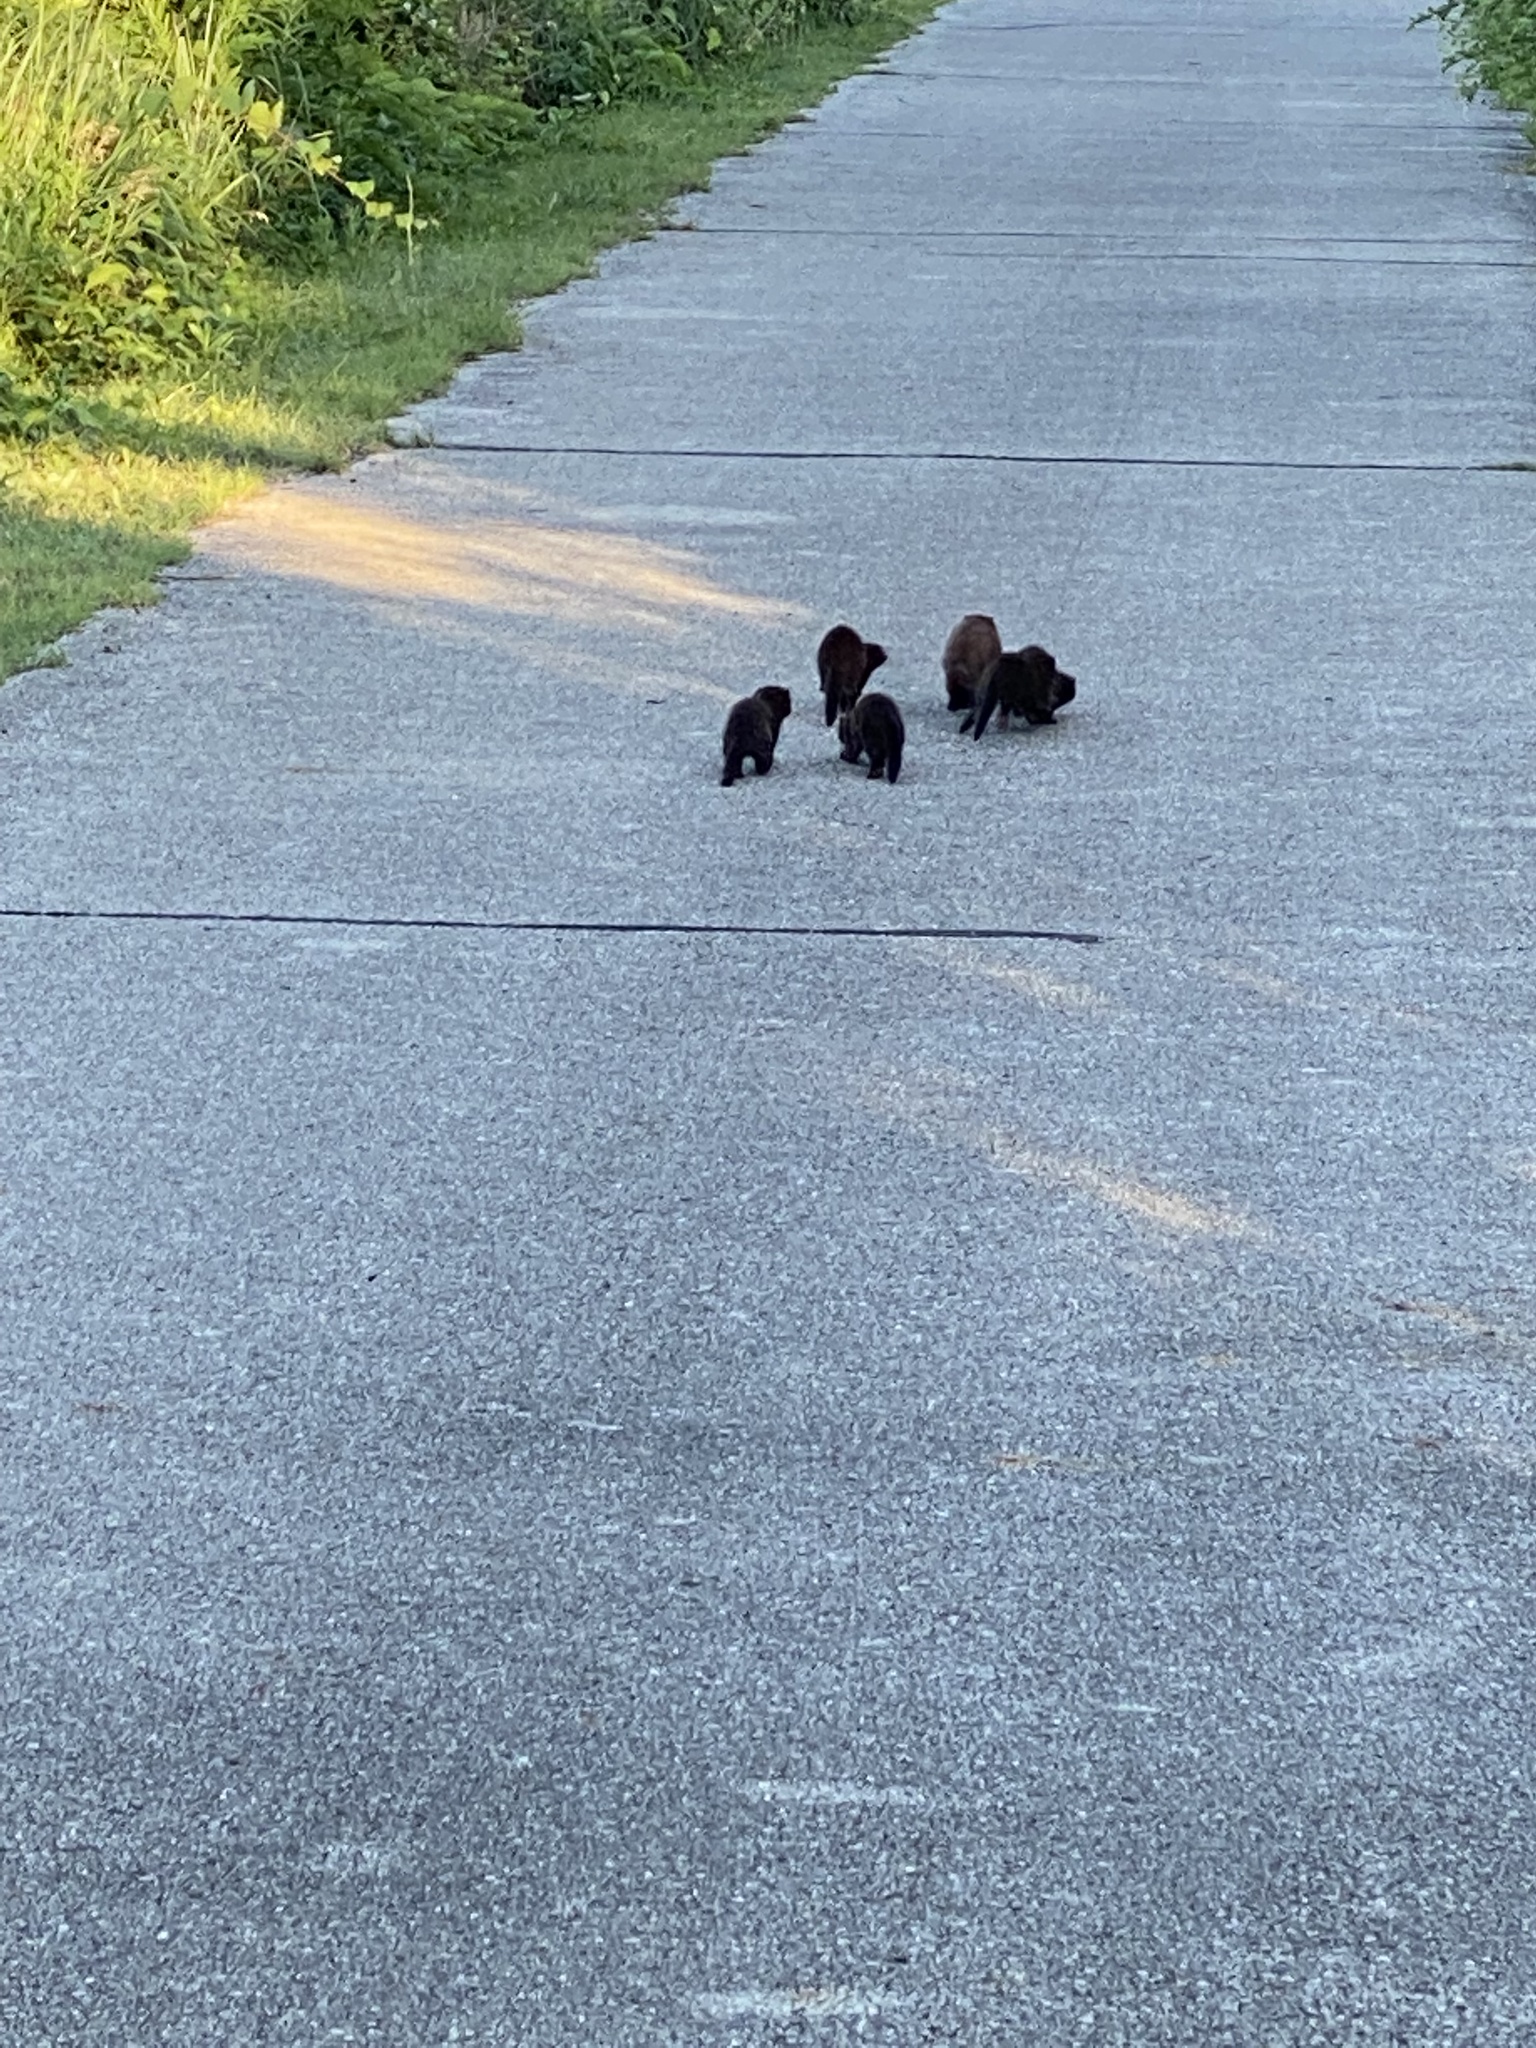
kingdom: Animalia
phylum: Chordata
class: Mammalia
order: Carnivora
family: Mustelidae
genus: Mustela
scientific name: Mustela
